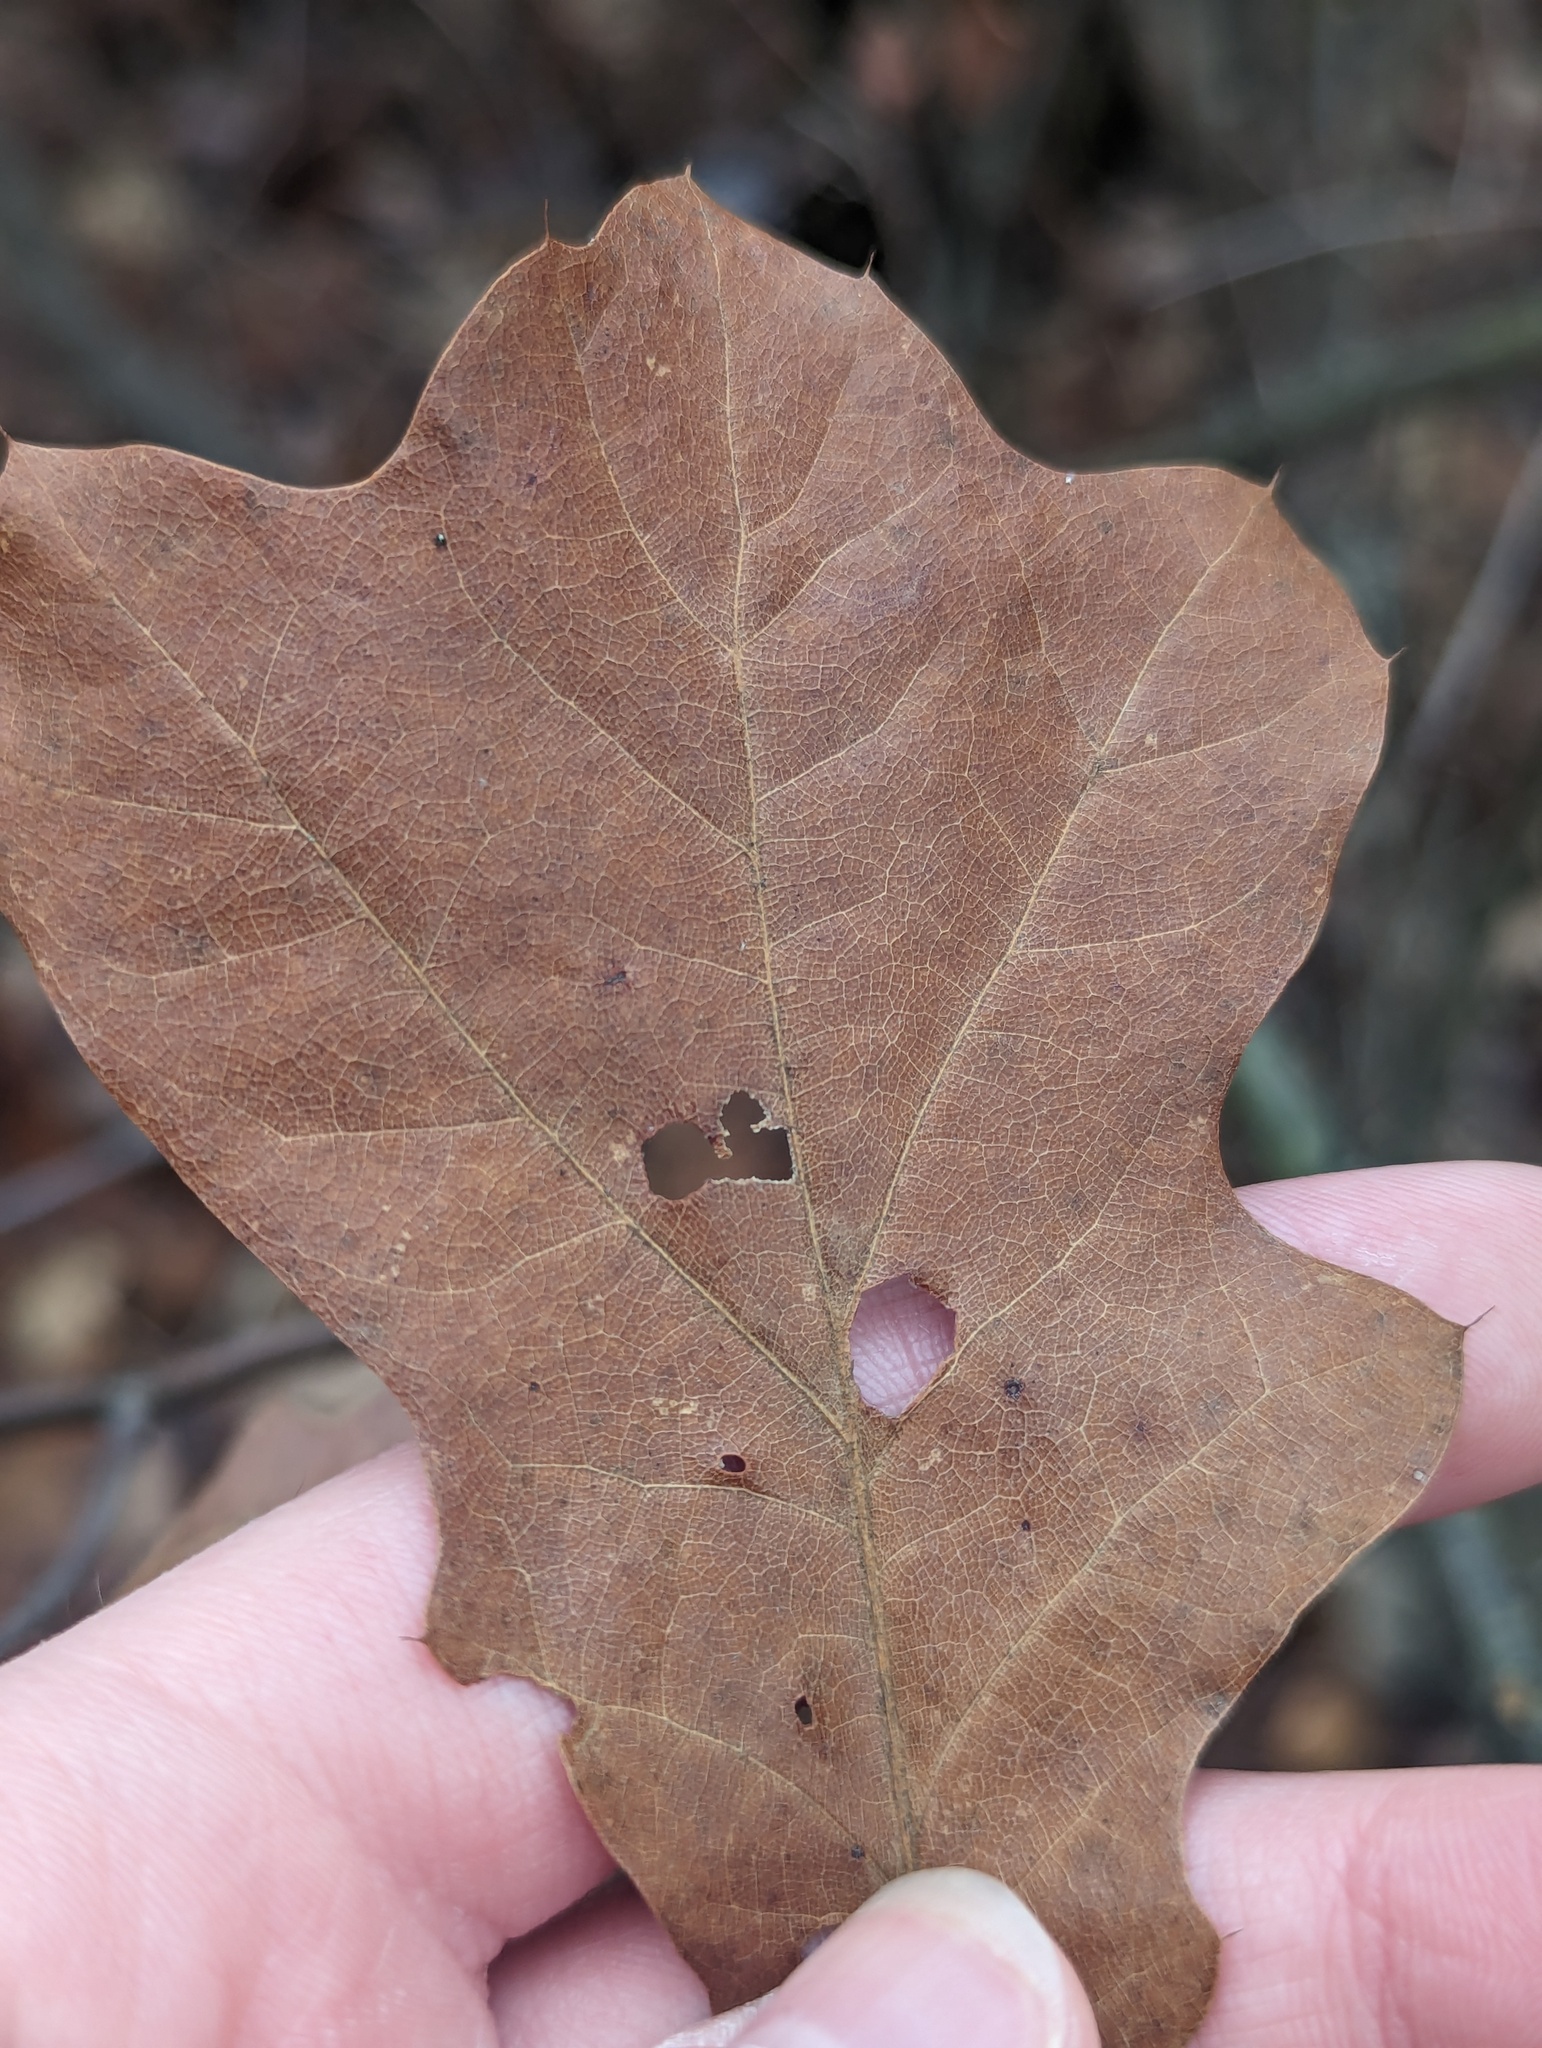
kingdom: Plantae
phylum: Tracheophyta
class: Magnoliopsida
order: Fagales
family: Fagaceae
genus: Quercus
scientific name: Quercus ilicifolia
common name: Bear oak
